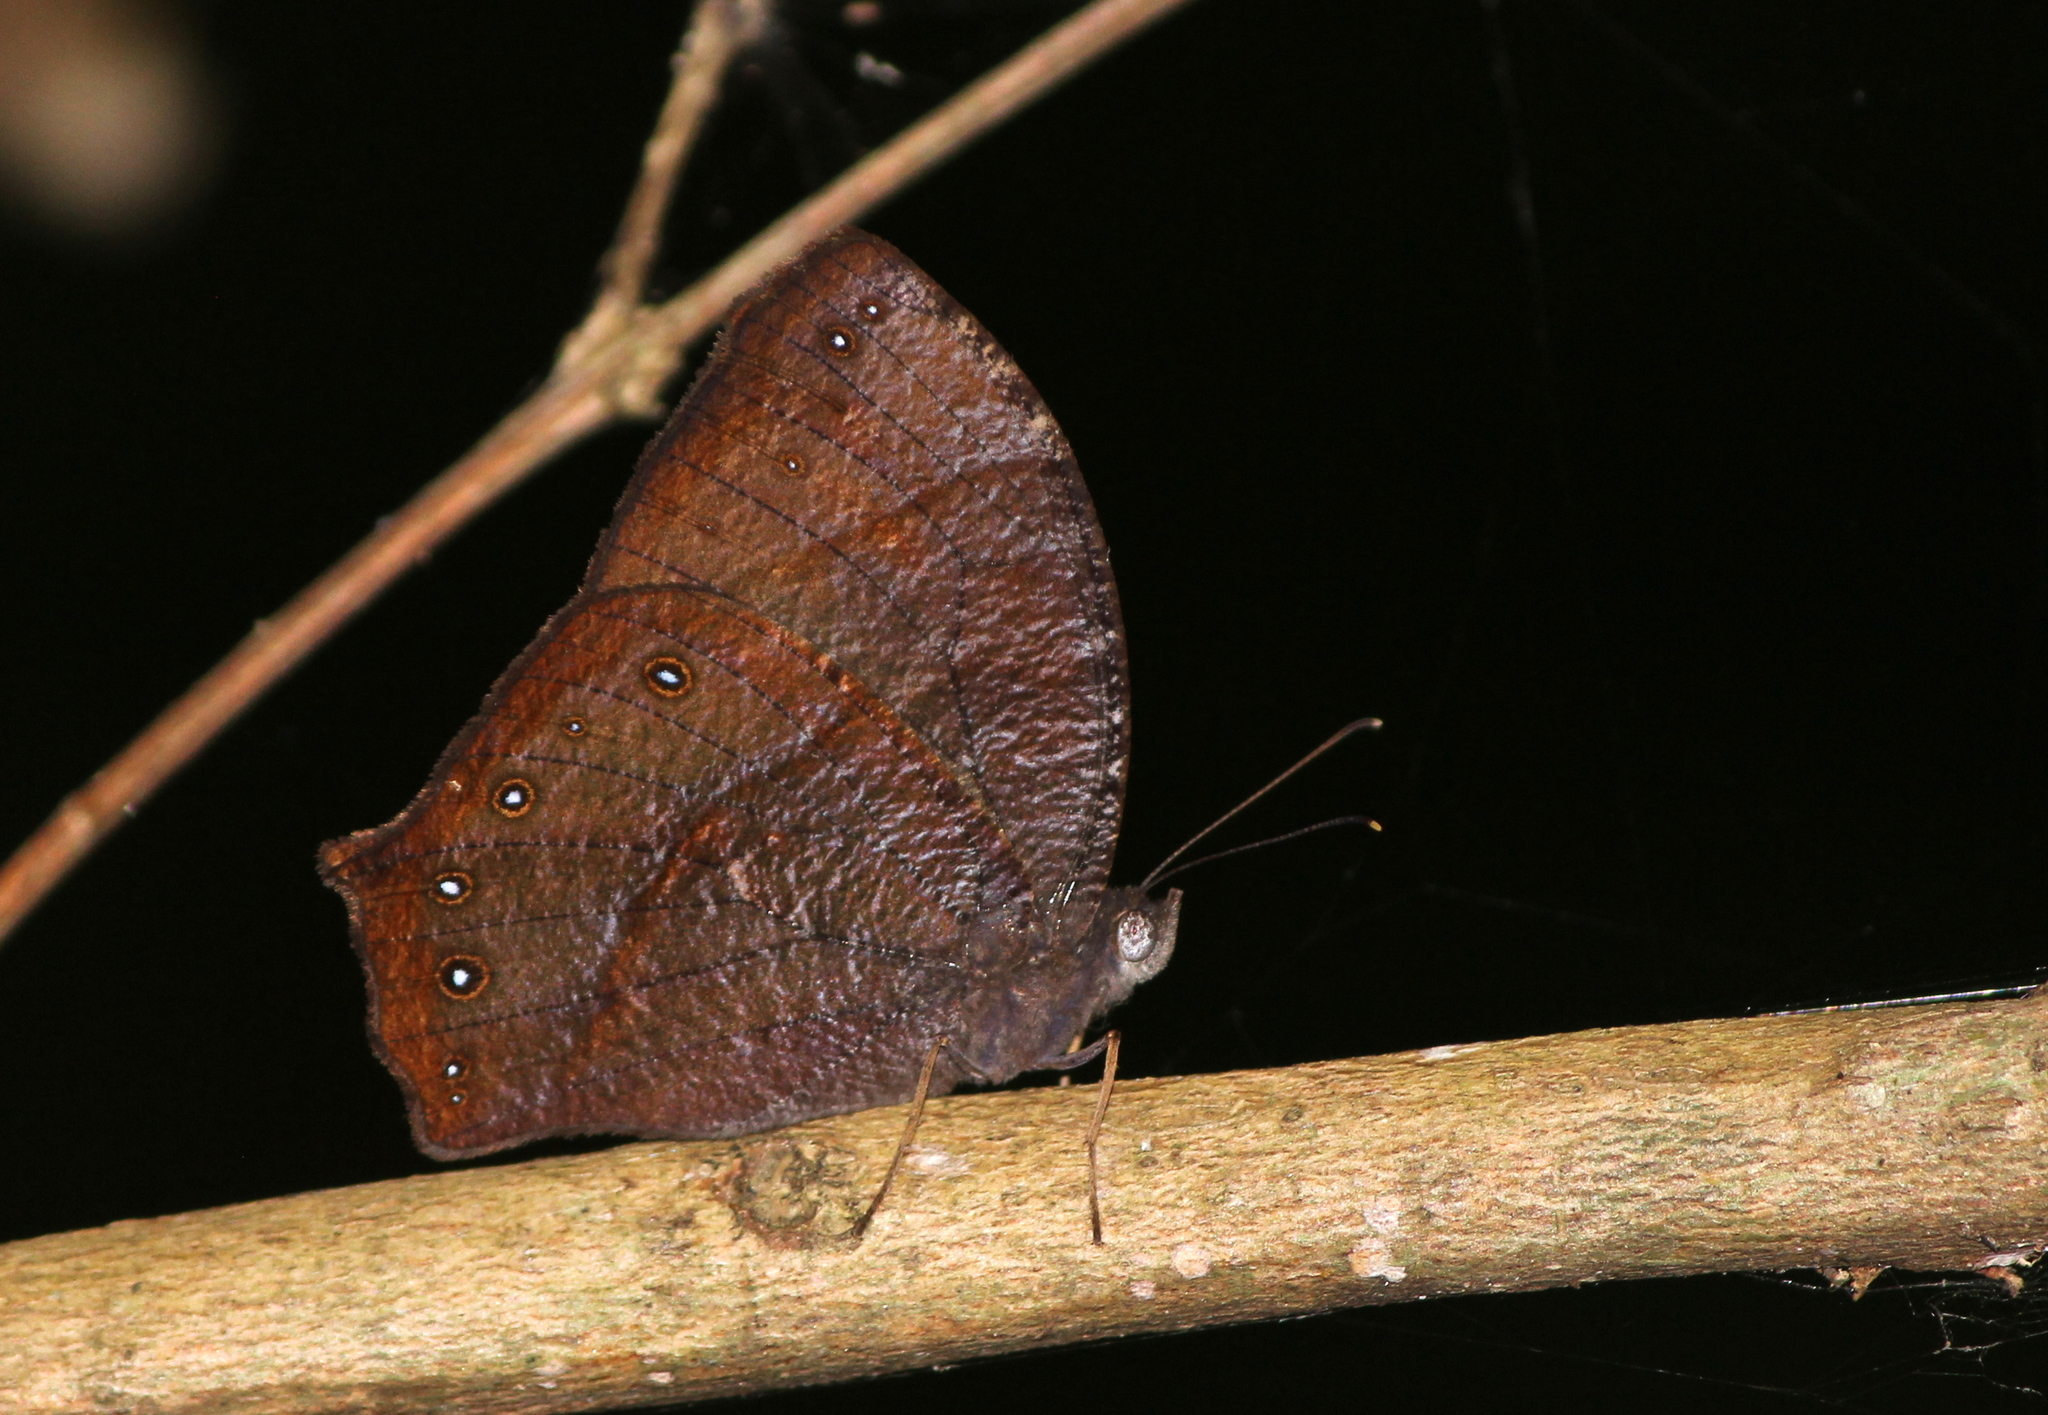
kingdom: Animalia
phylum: Arthropoda
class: Insecta
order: Lepidoptera
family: Nymphalidae
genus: Melanitis
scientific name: Melanitis phedima
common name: Dark evening brown
